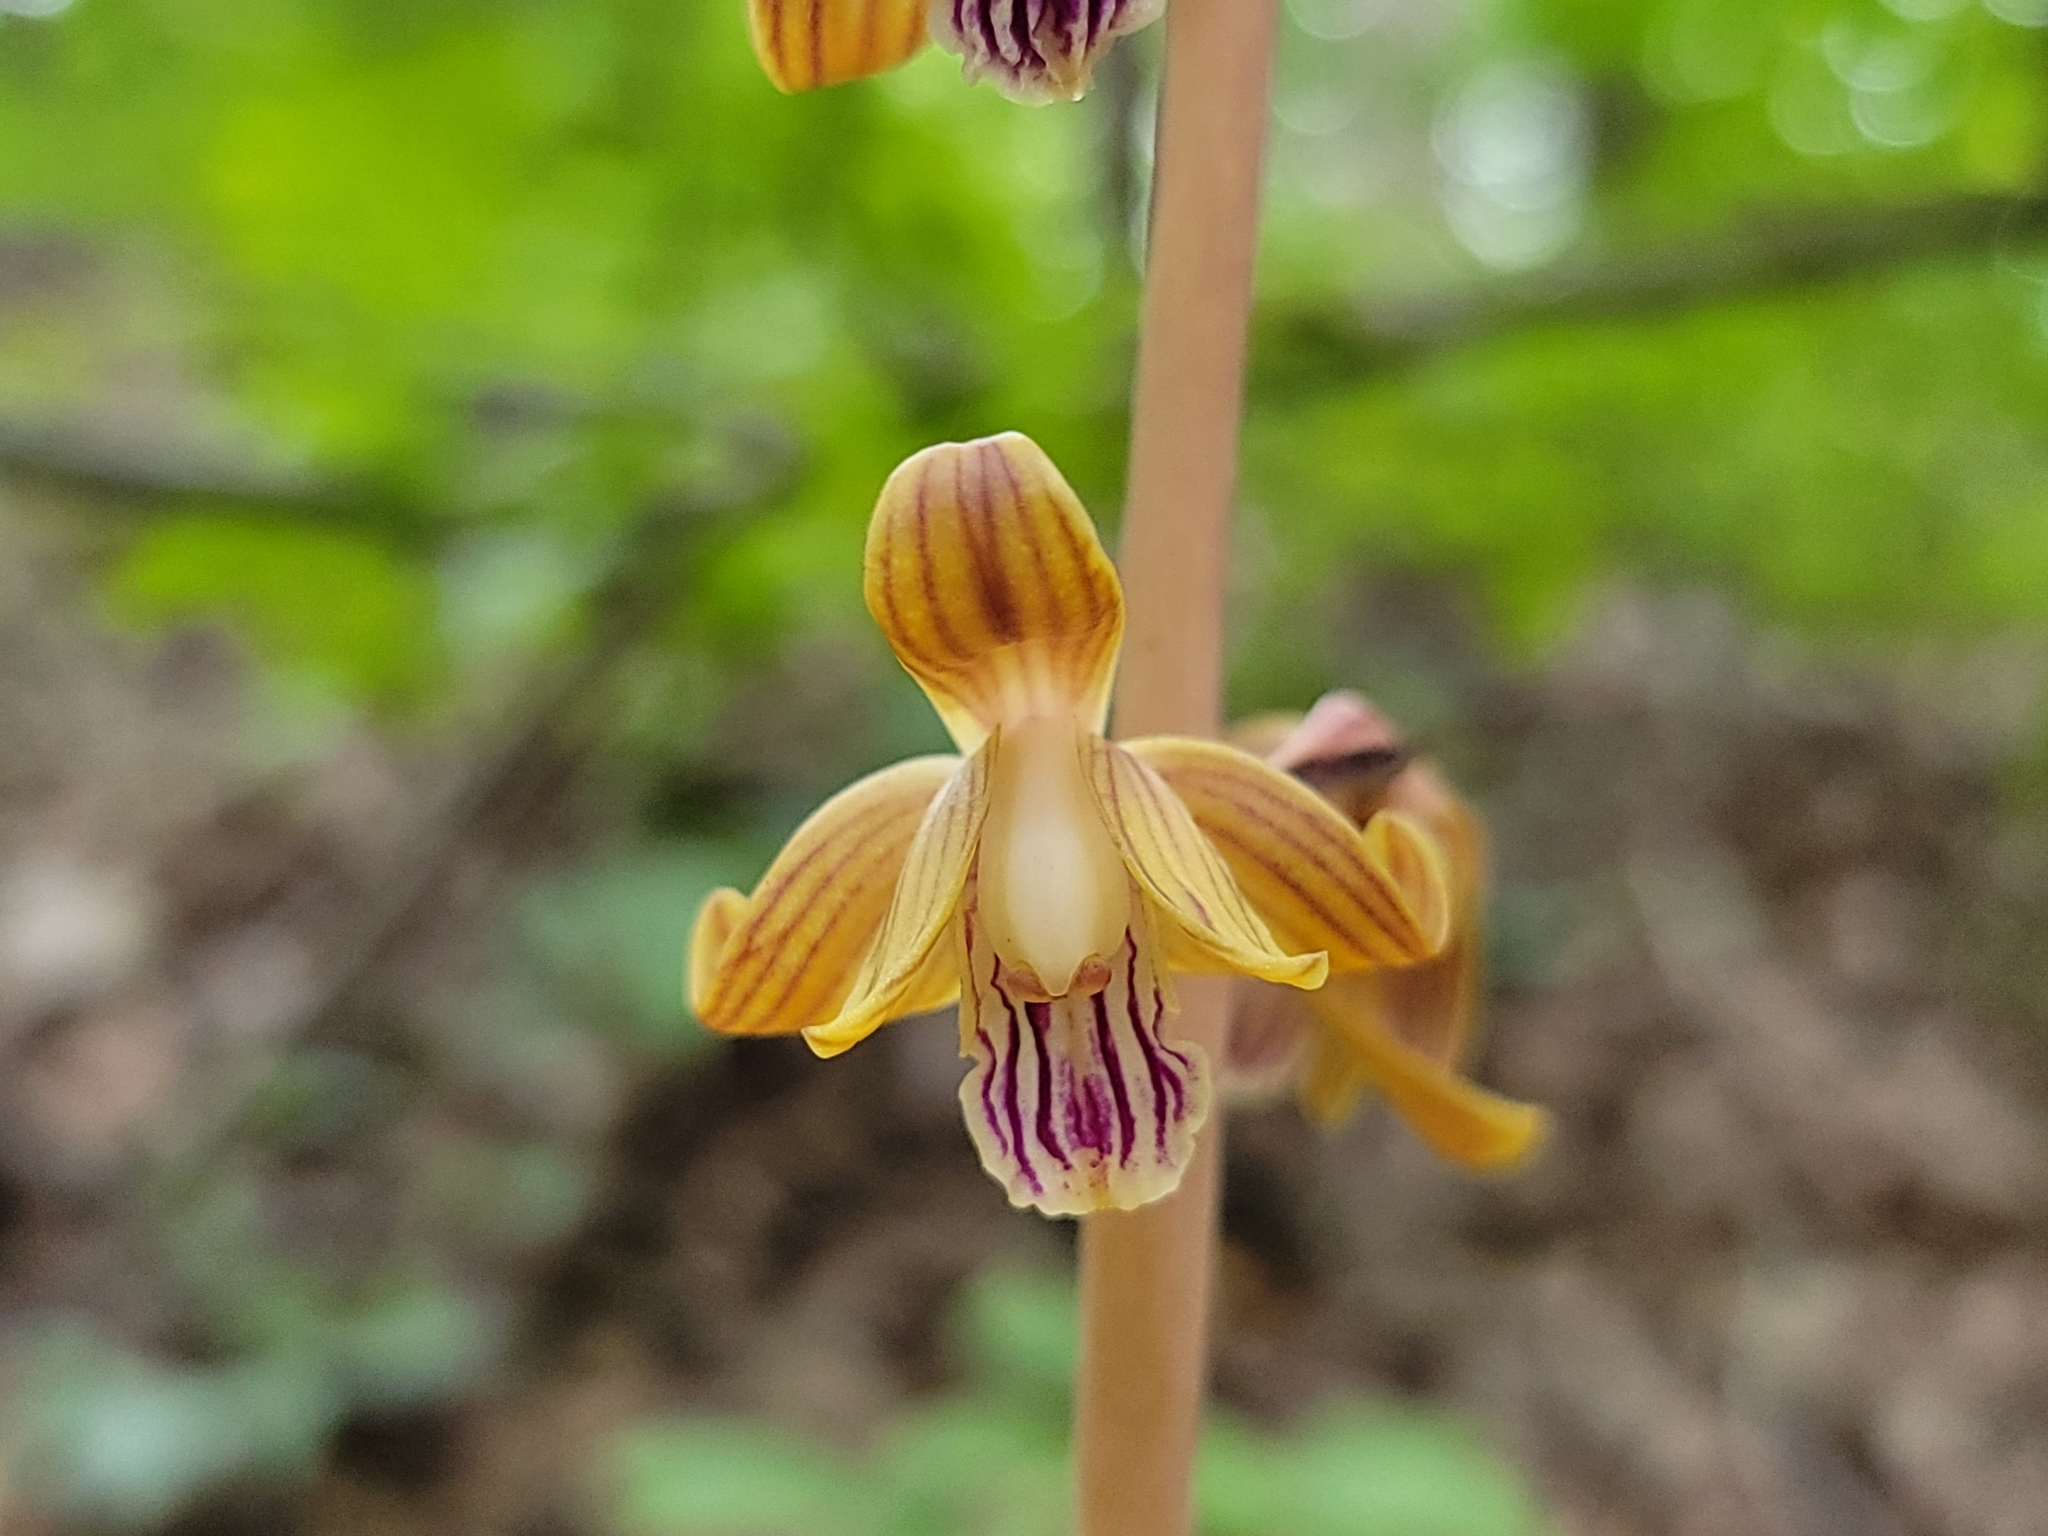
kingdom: Plantae
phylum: Tracheophyta
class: Liliopsida
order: Asparagales
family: Orchidaceae
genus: Bletia
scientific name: Bletia spicata
